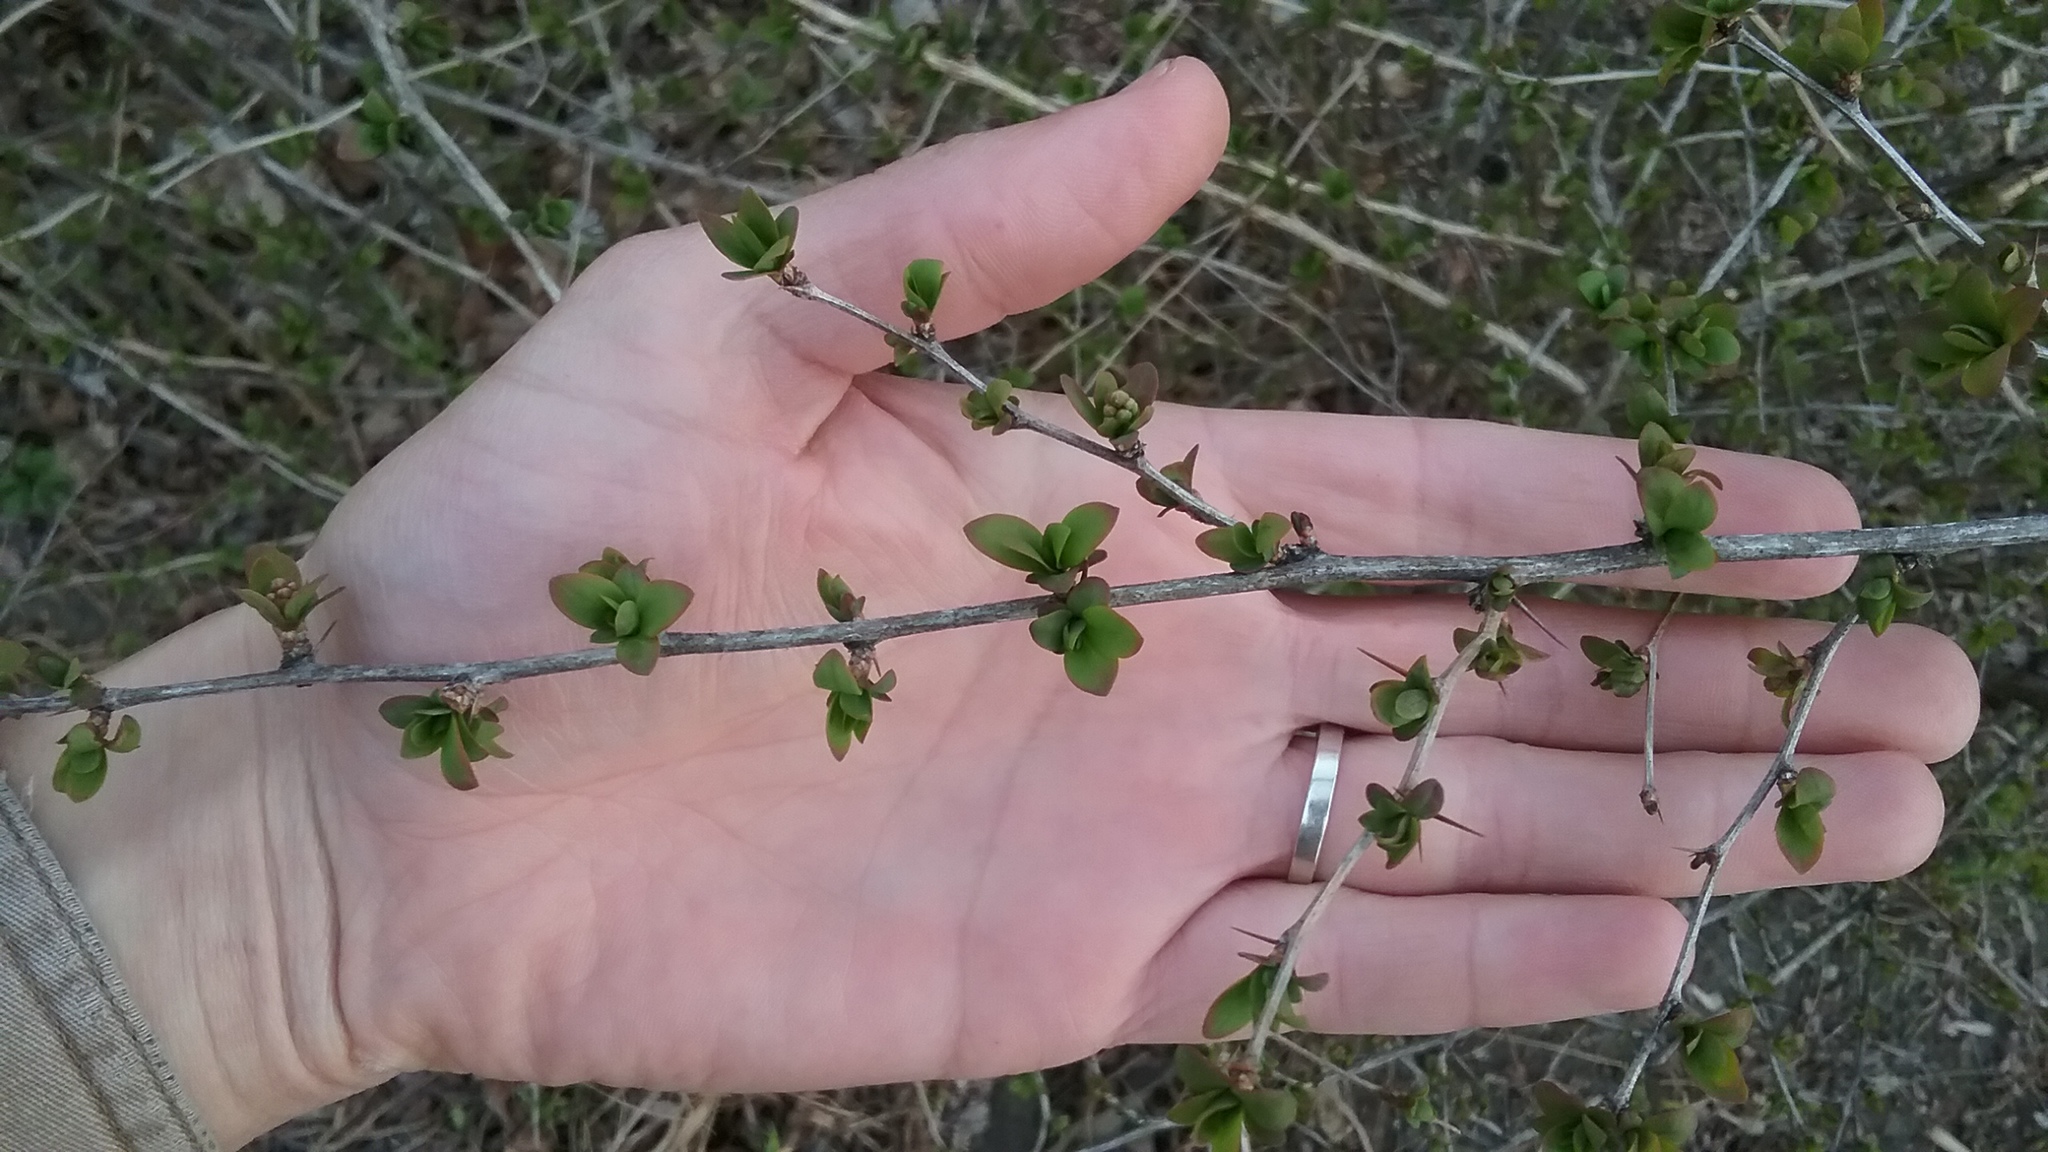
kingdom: Plantae
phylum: Tracheophyta
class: Magnoliopsida
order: Ranunculales
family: Berberidaceae
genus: Berberis
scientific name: Berberis thunbergii
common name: Japanese barberry
